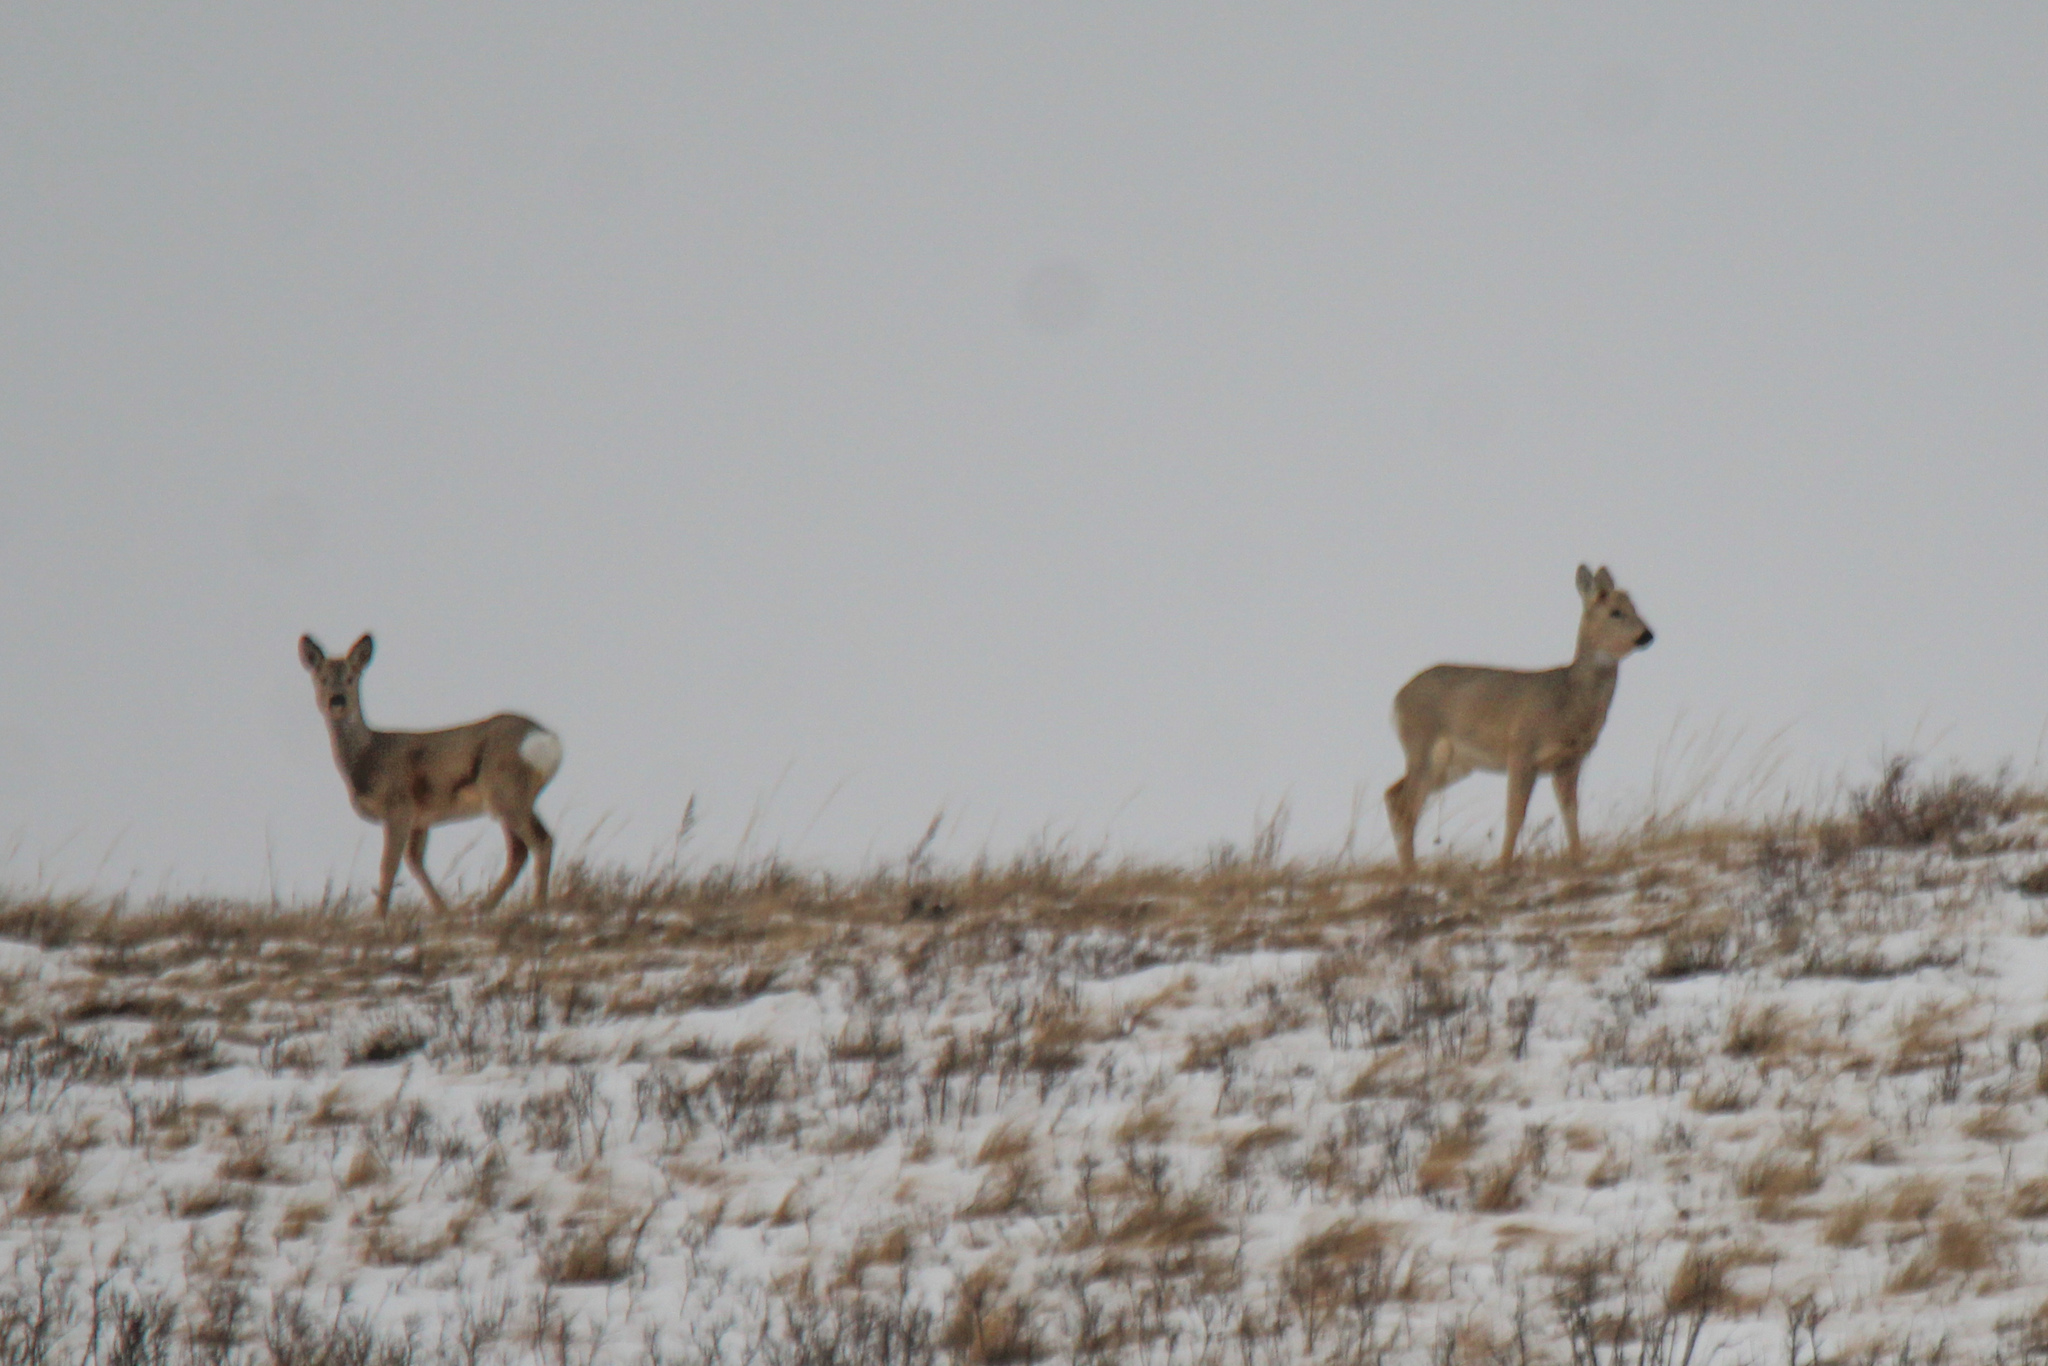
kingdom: Animalia
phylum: Chordata
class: Mammalia
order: Artiodactyla
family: Cervidae
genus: Capreolus
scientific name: Capreolus pygargus
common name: Siberian roe
